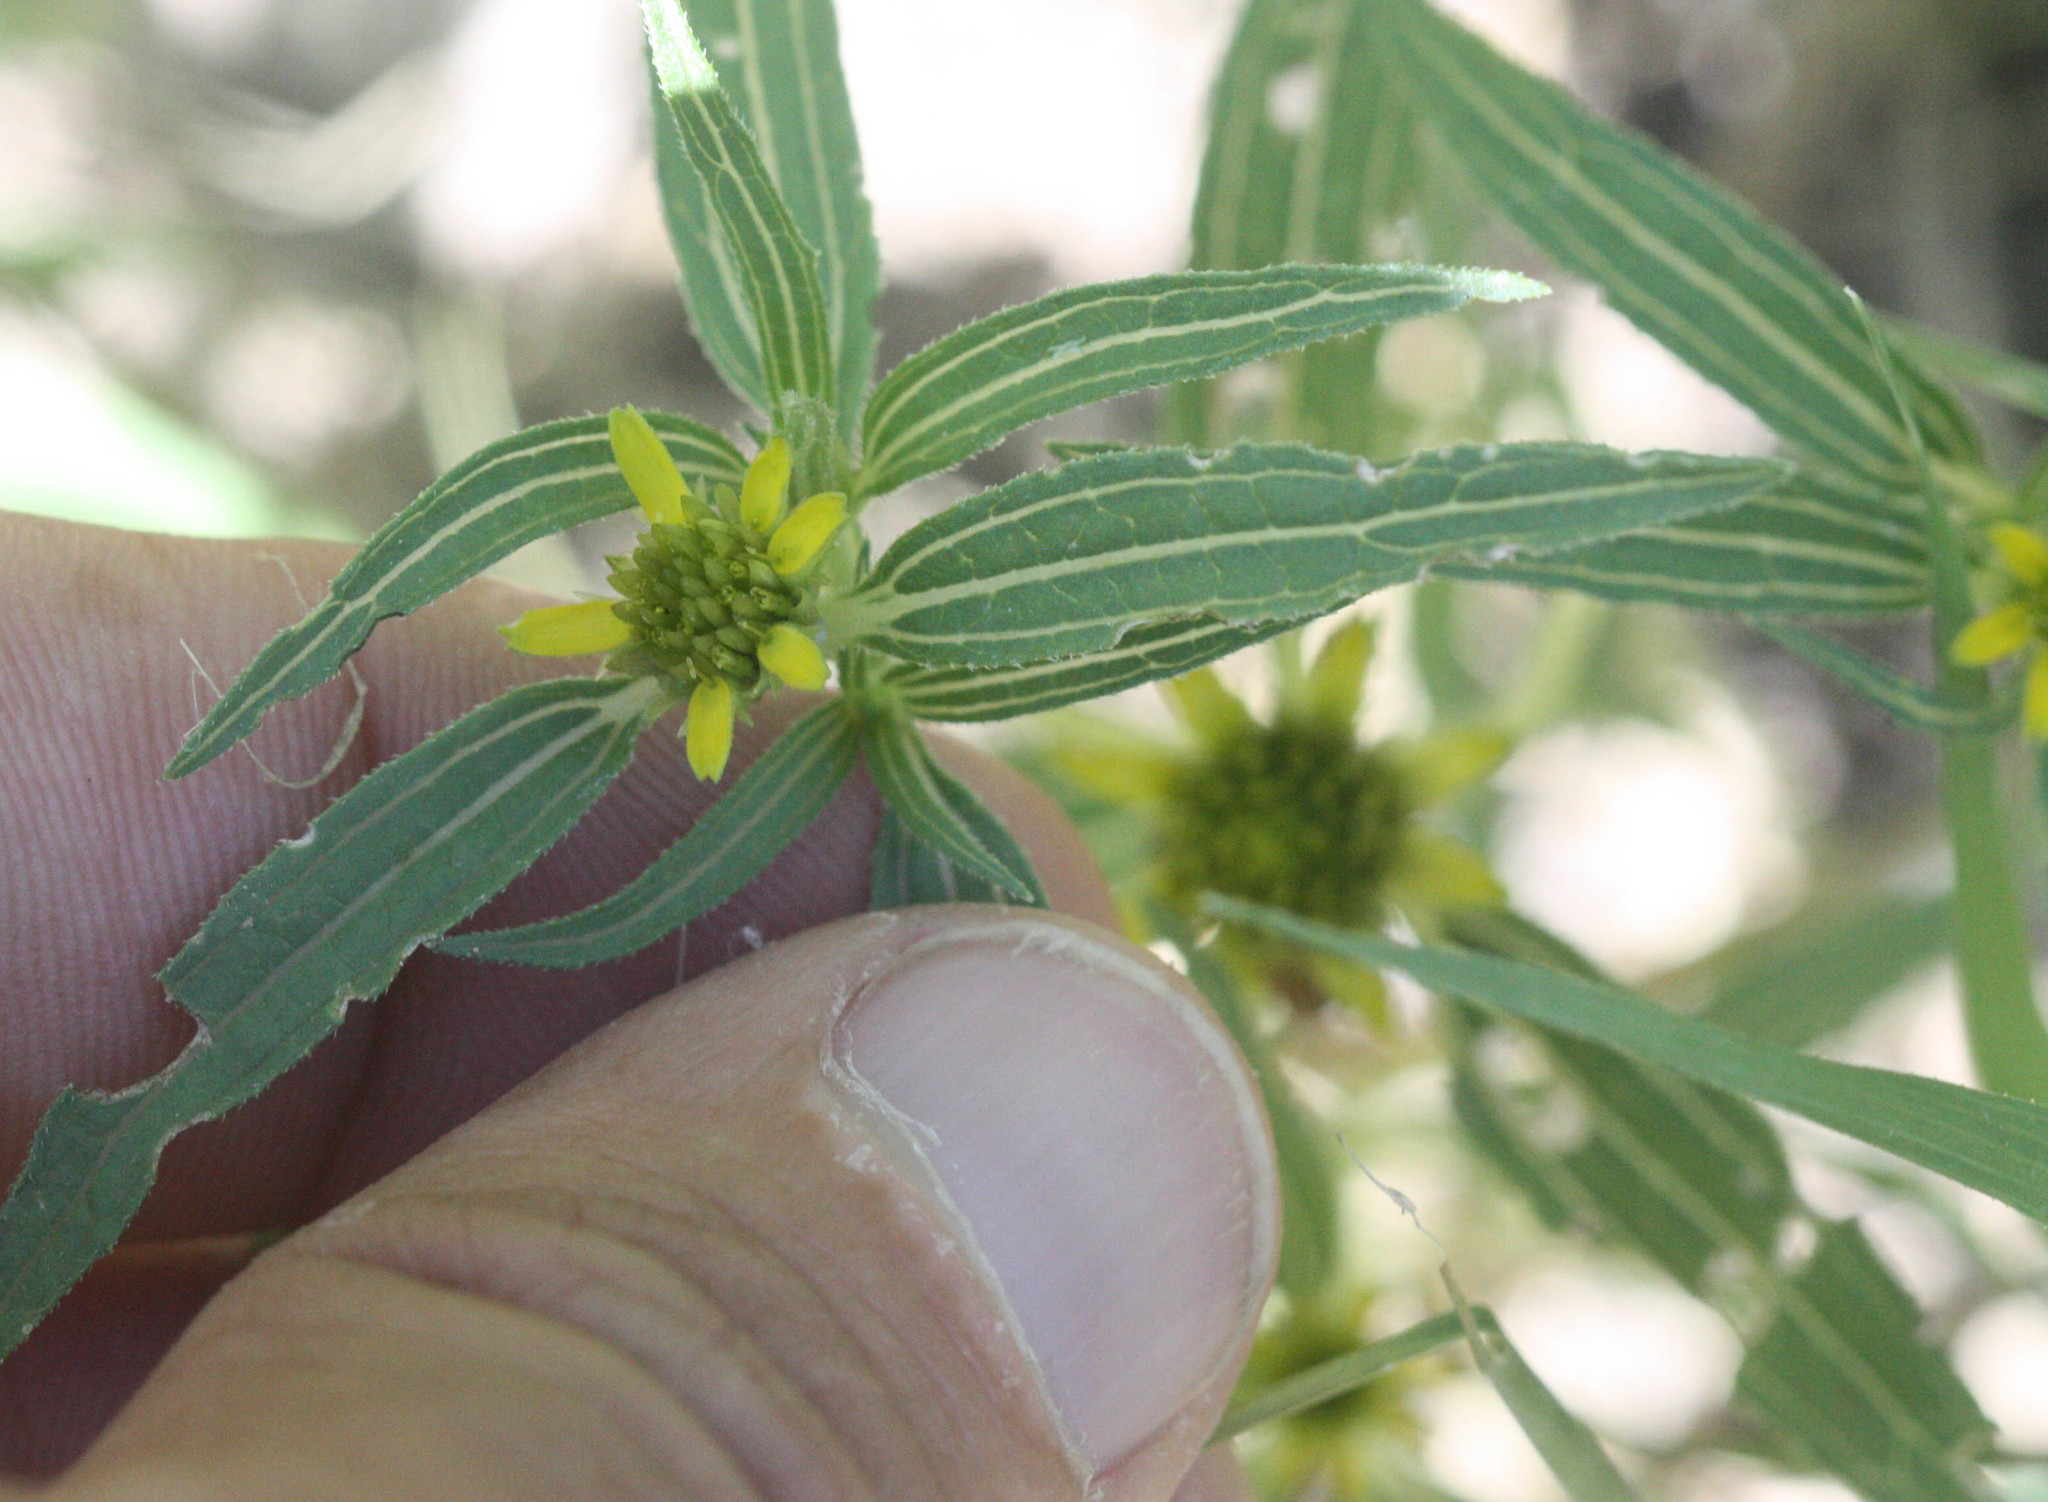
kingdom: Plantae
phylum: Tracheophyta
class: Magnoliopsida
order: Asterales
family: Asteraceae
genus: Sanvitalia
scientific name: Sanvitalia abertii
